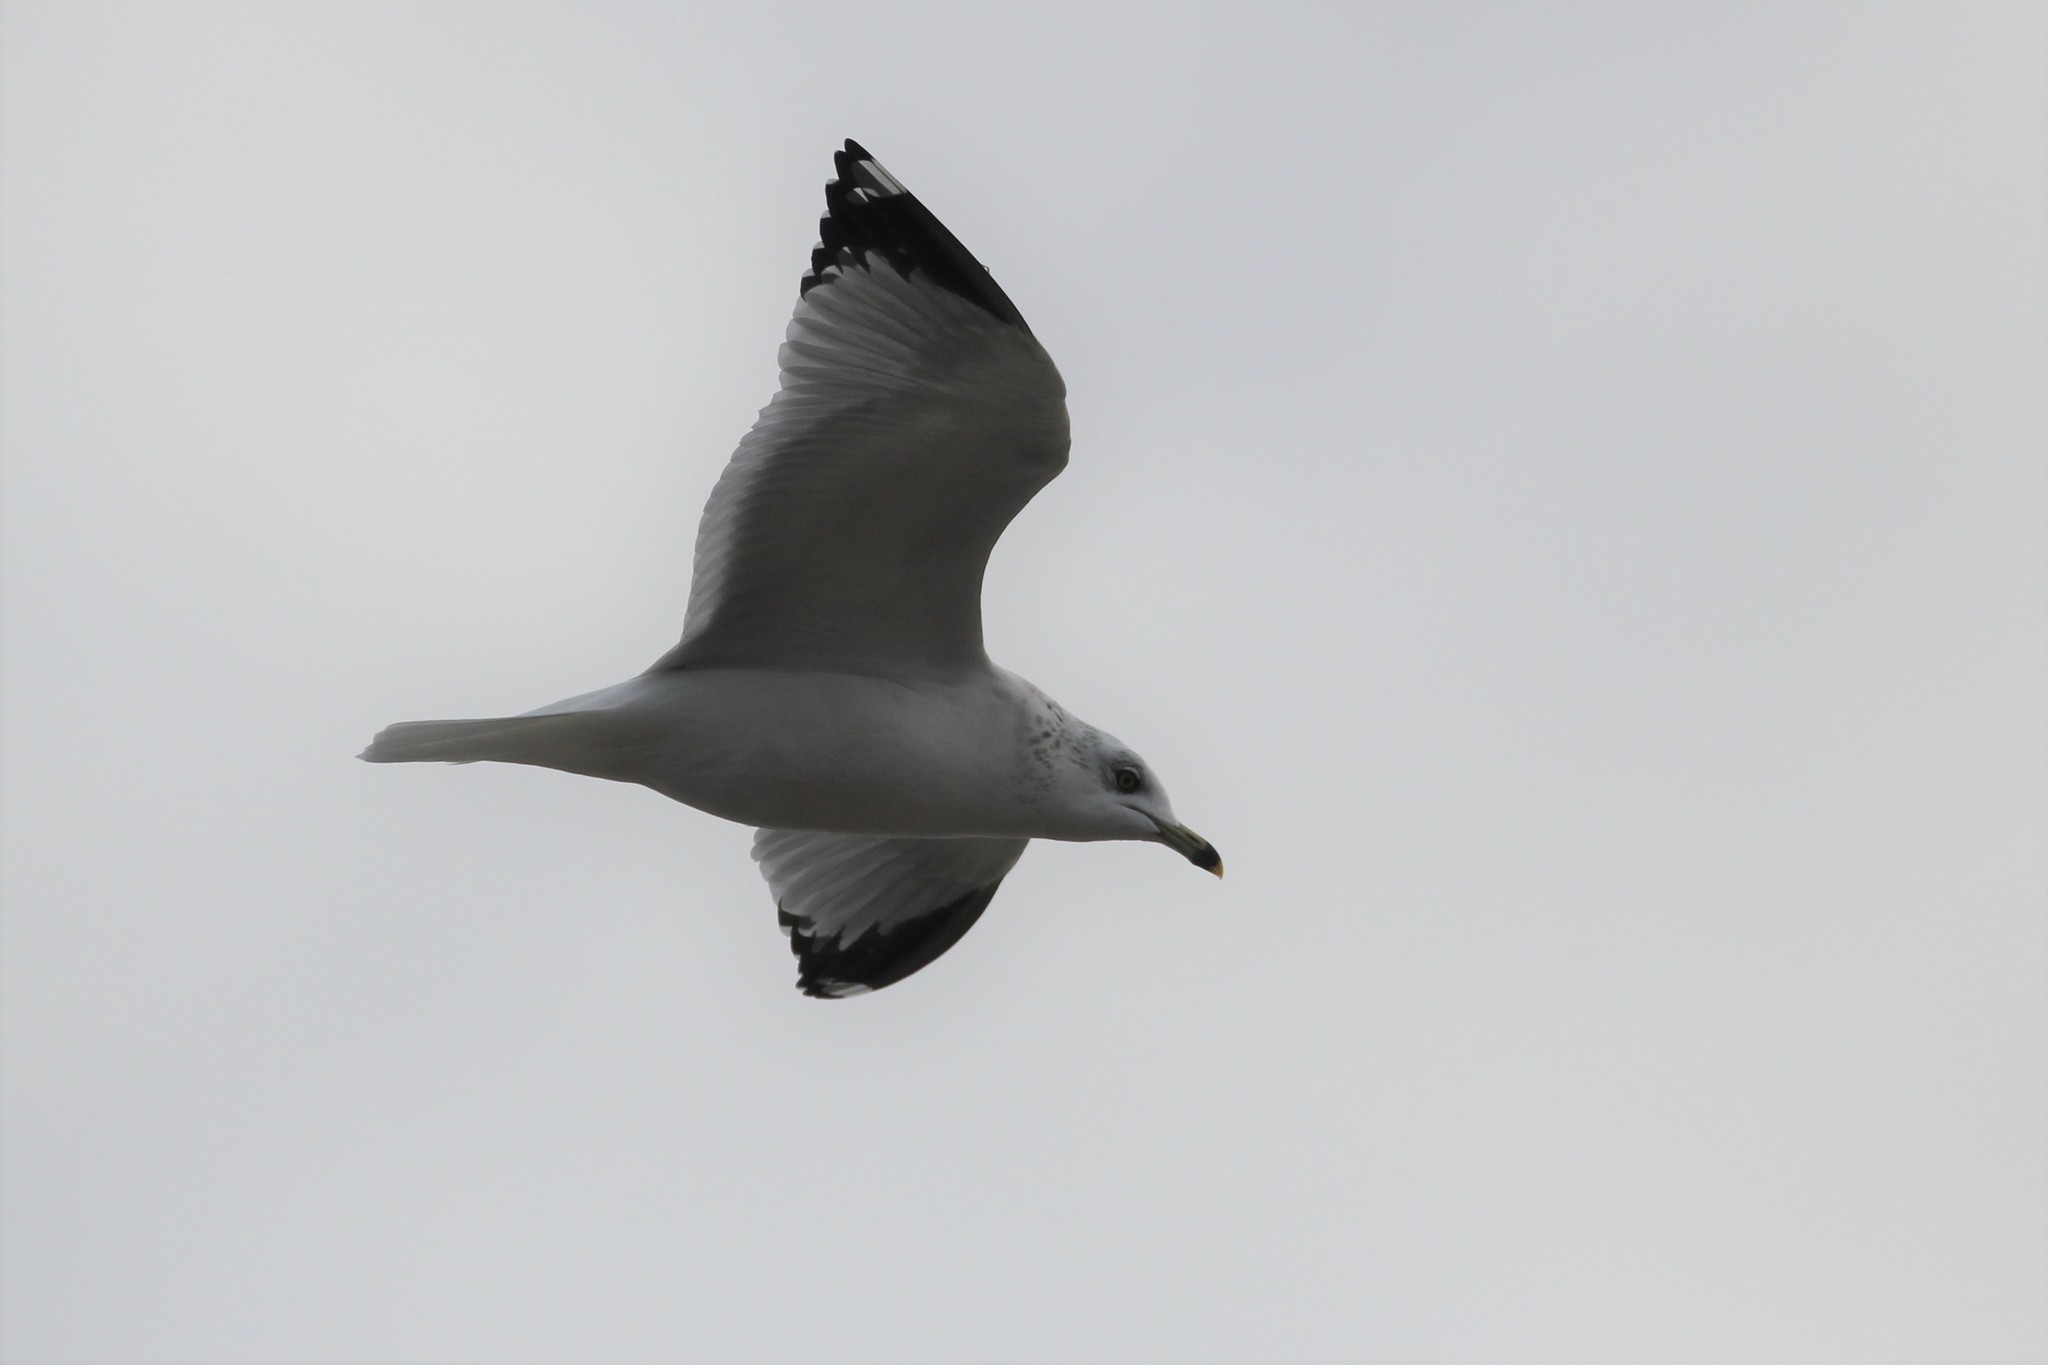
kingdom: Animalia
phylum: Chordata
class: Aves
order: Charadriiformes
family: Laridae
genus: Larus
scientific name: Larus delawarensis
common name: Ring-billed gull
